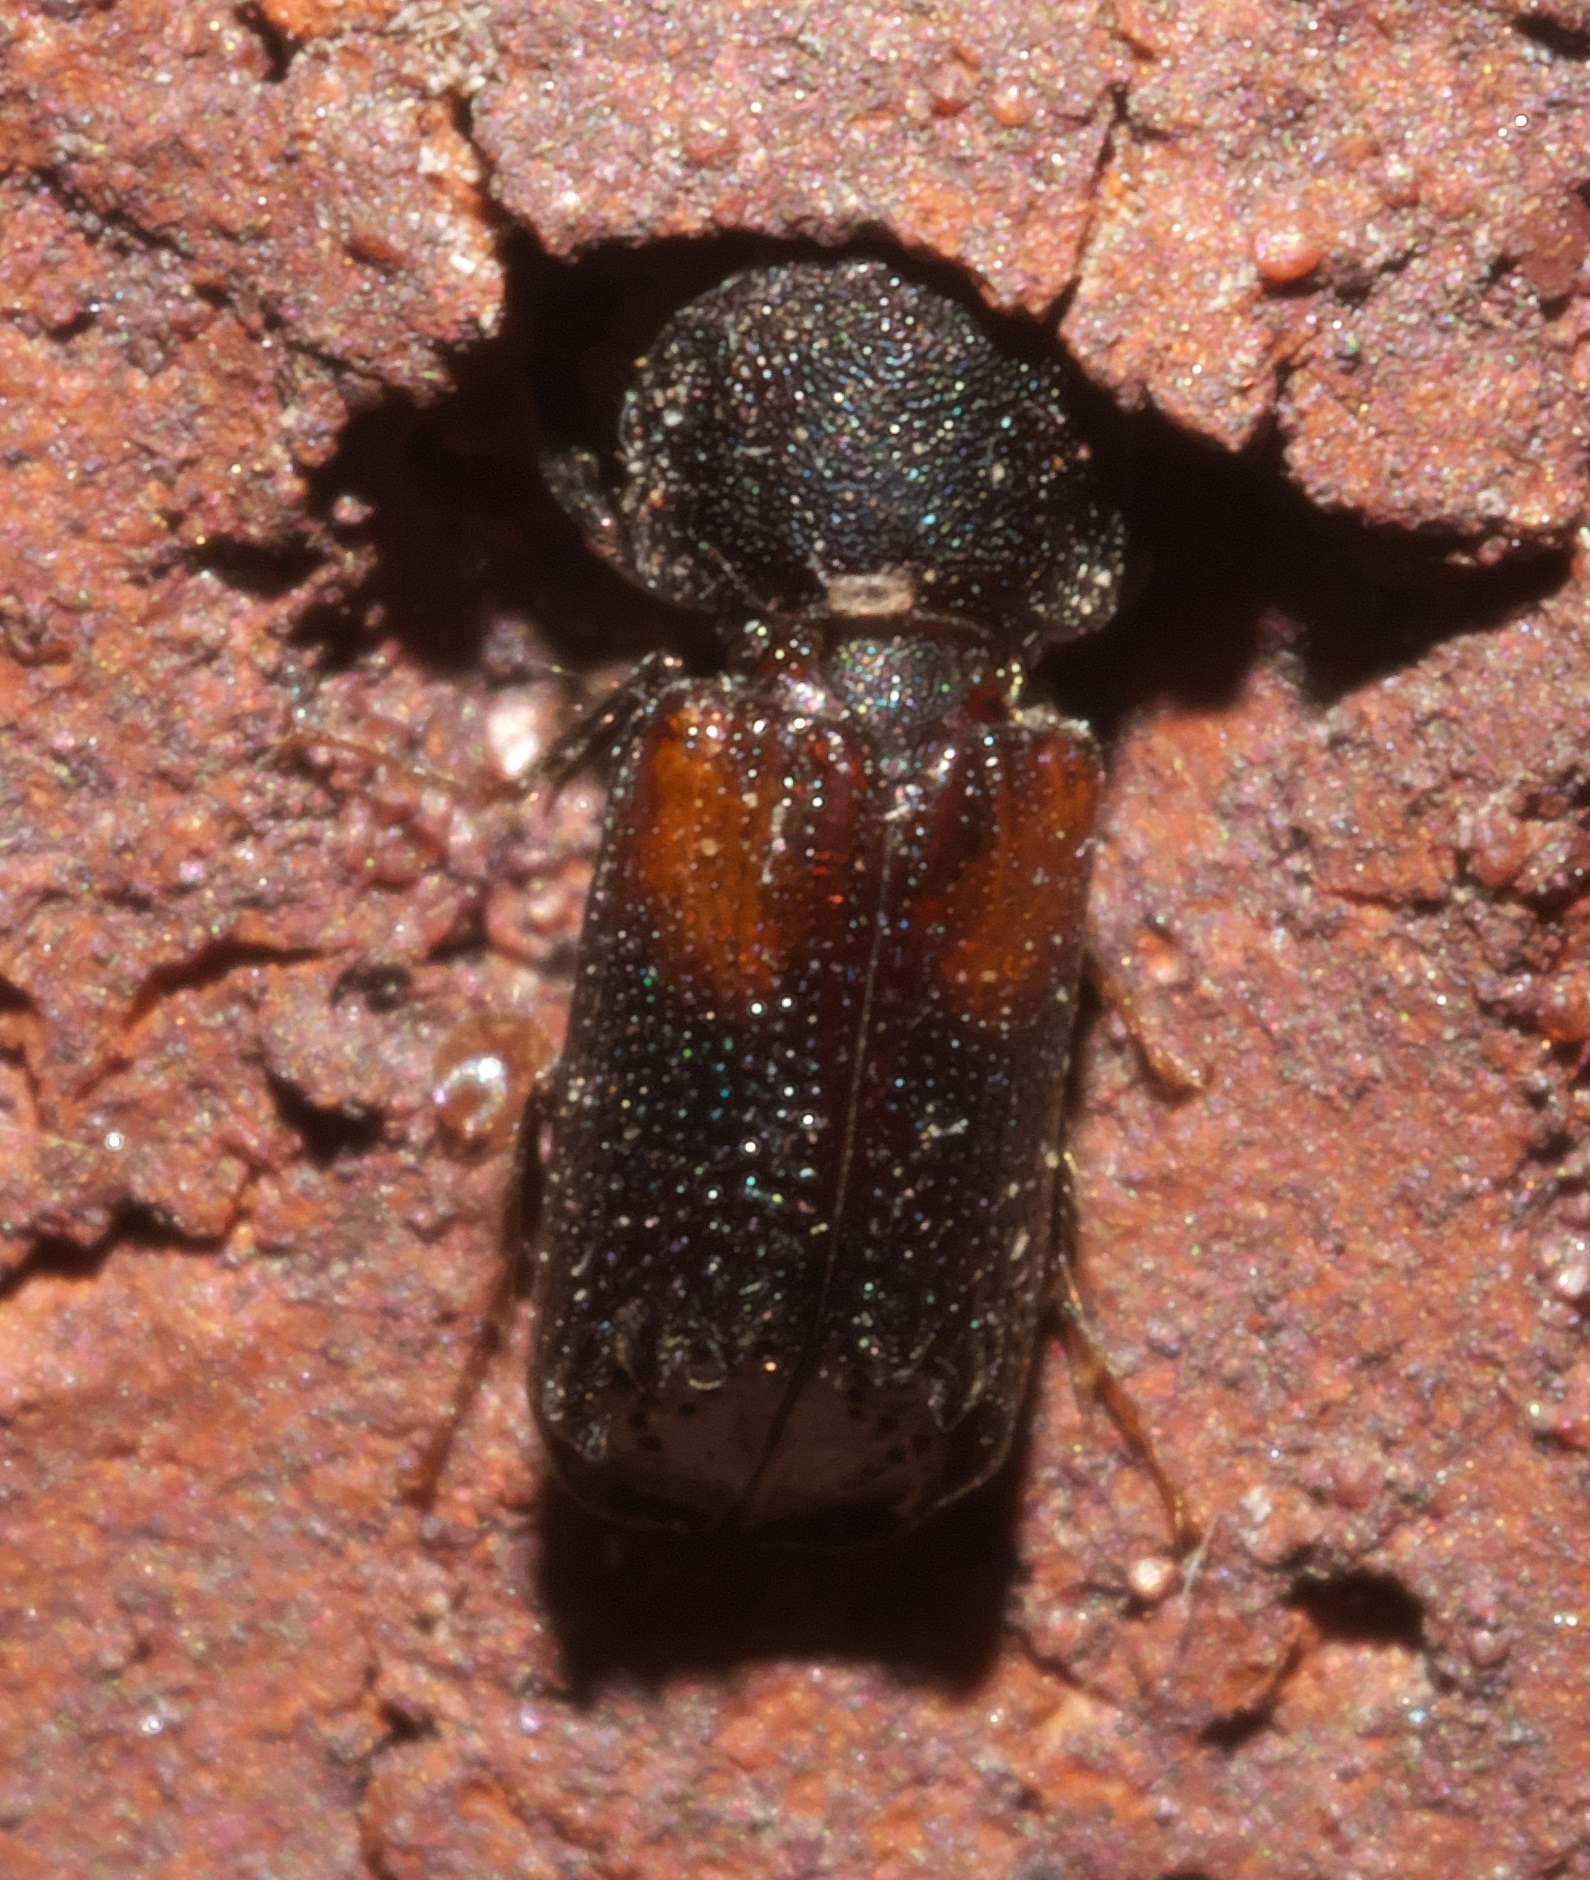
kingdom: Animalia
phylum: Arthropoda
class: Insecta
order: Coleoptera
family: Bostrichidae
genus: Xylobiops
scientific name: Xylobiops basilaris
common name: Red-shouldered bostrichid
